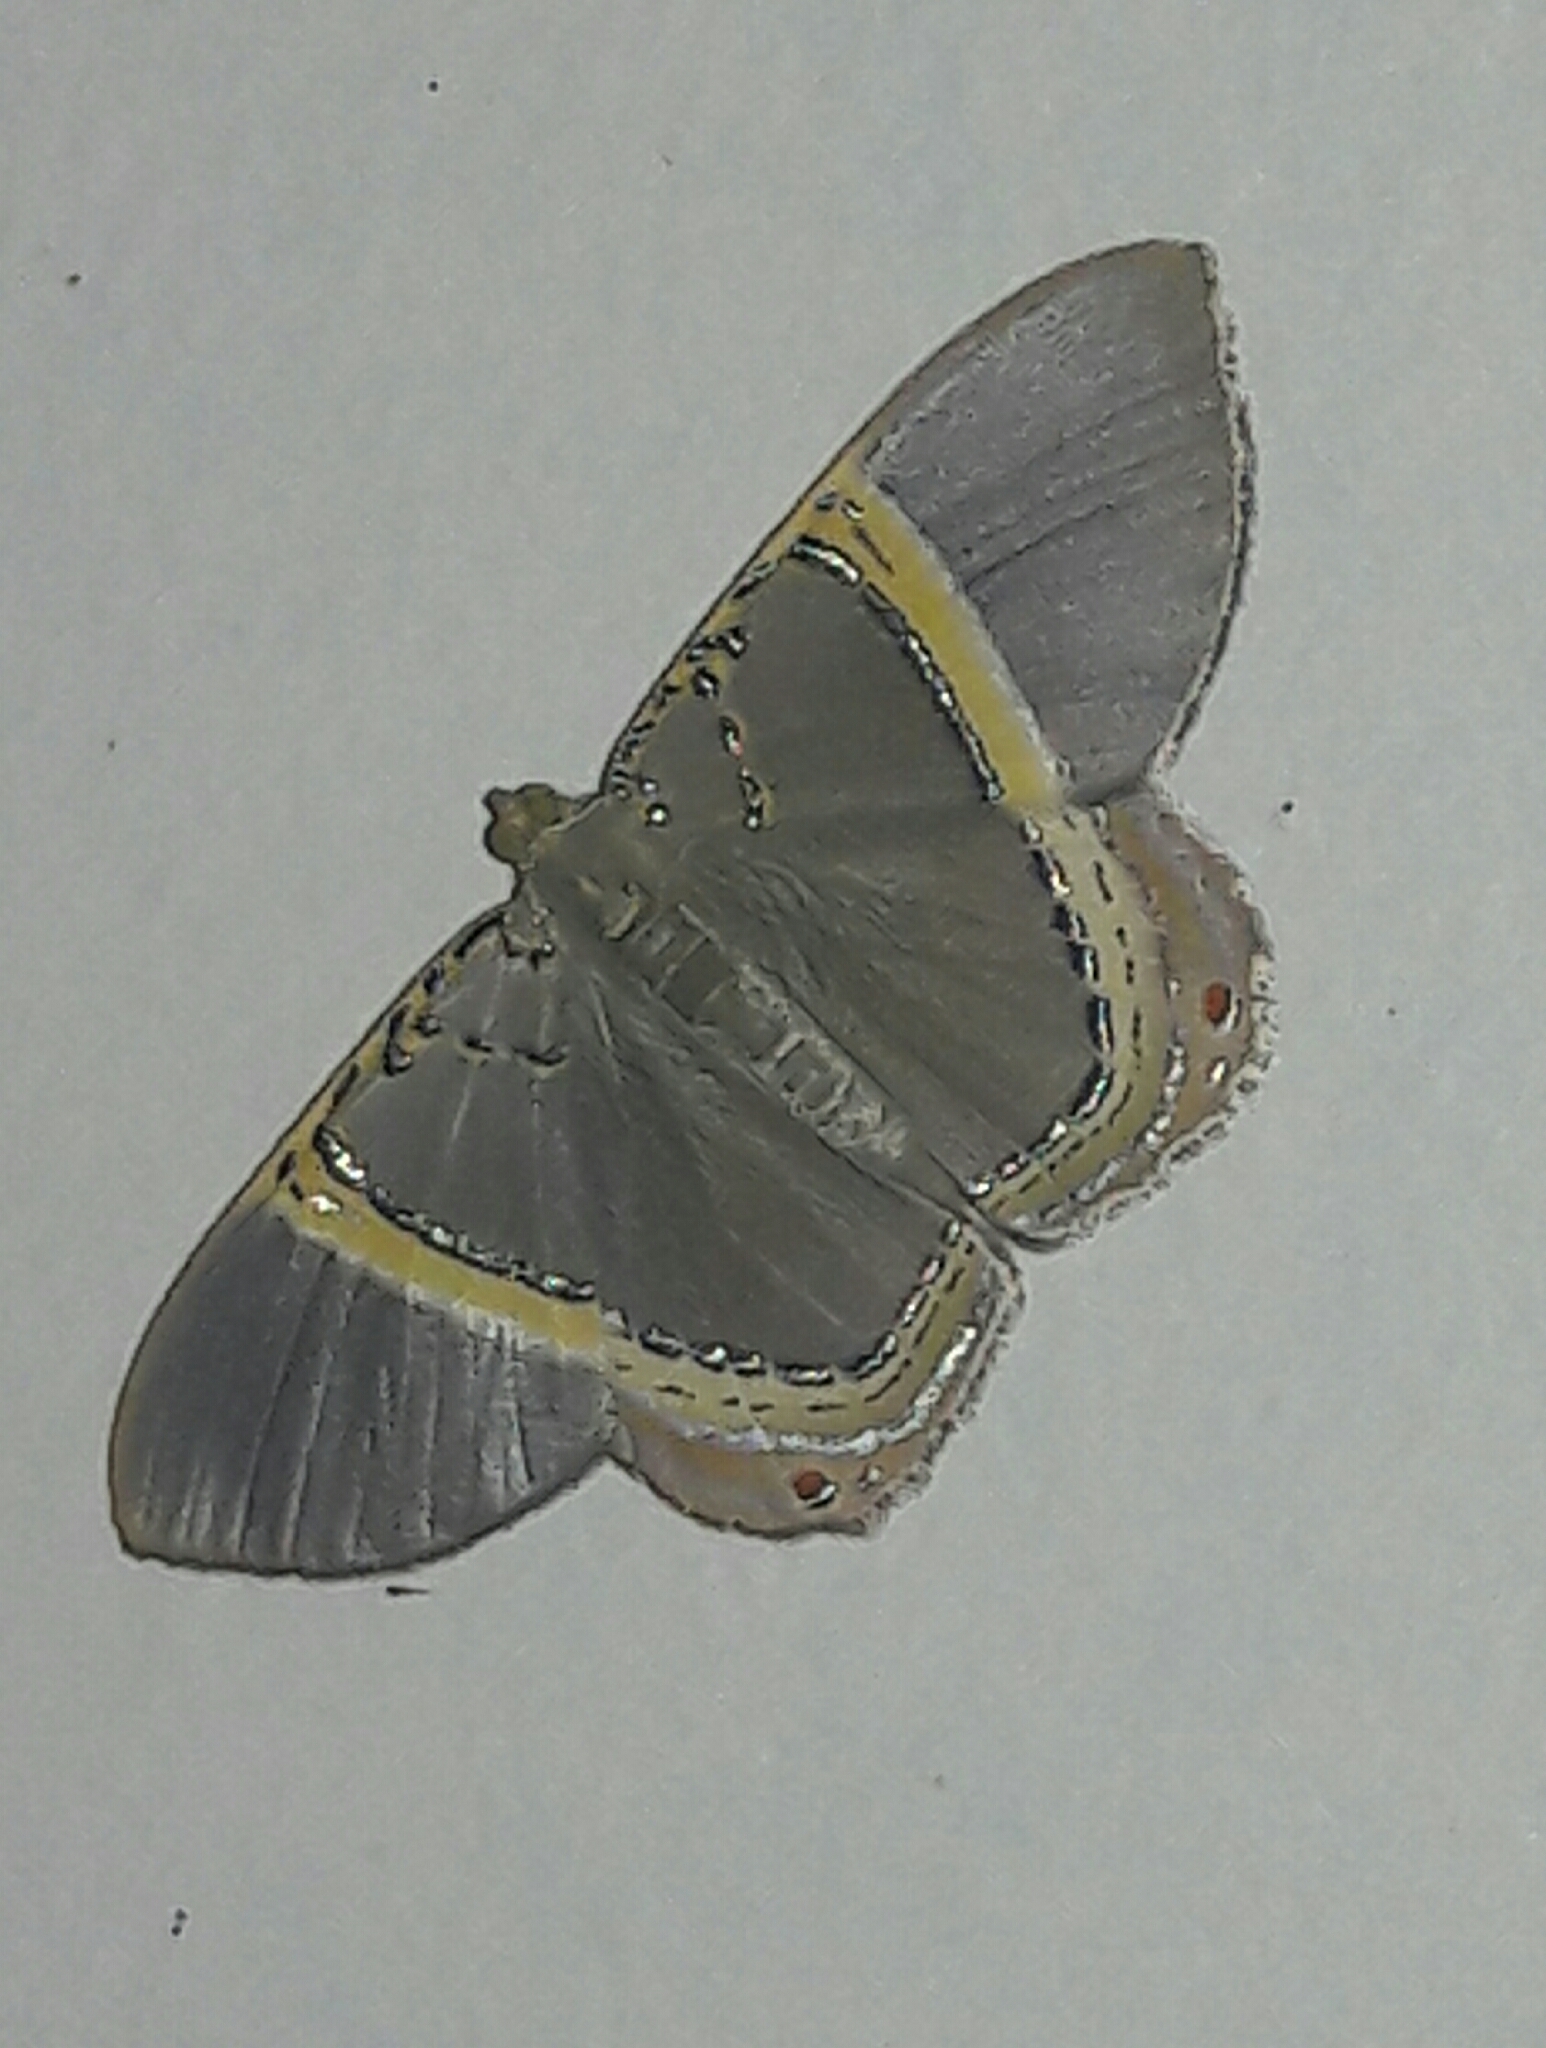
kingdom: Animalia
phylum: Arthropoda
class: Insecta
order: Lepidoptera
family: Geometridae
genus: Phrygionis
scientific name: Phrygionis paradoxata
